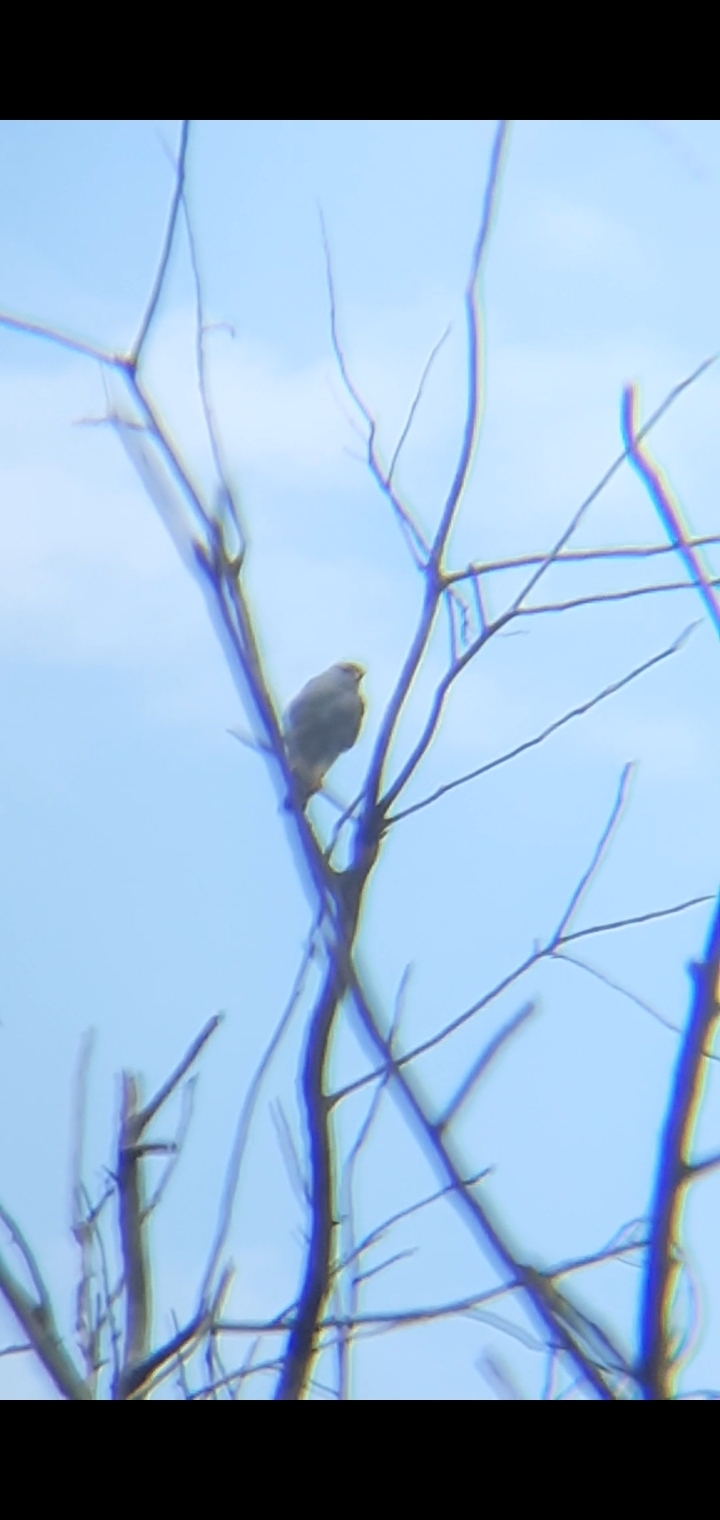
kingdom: Animalia
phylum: Chordata
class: Aves
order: Accipitriformes
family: Accipitridae
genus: Buteo
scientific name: Buteo nitidus
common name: Grey-lined hawk
